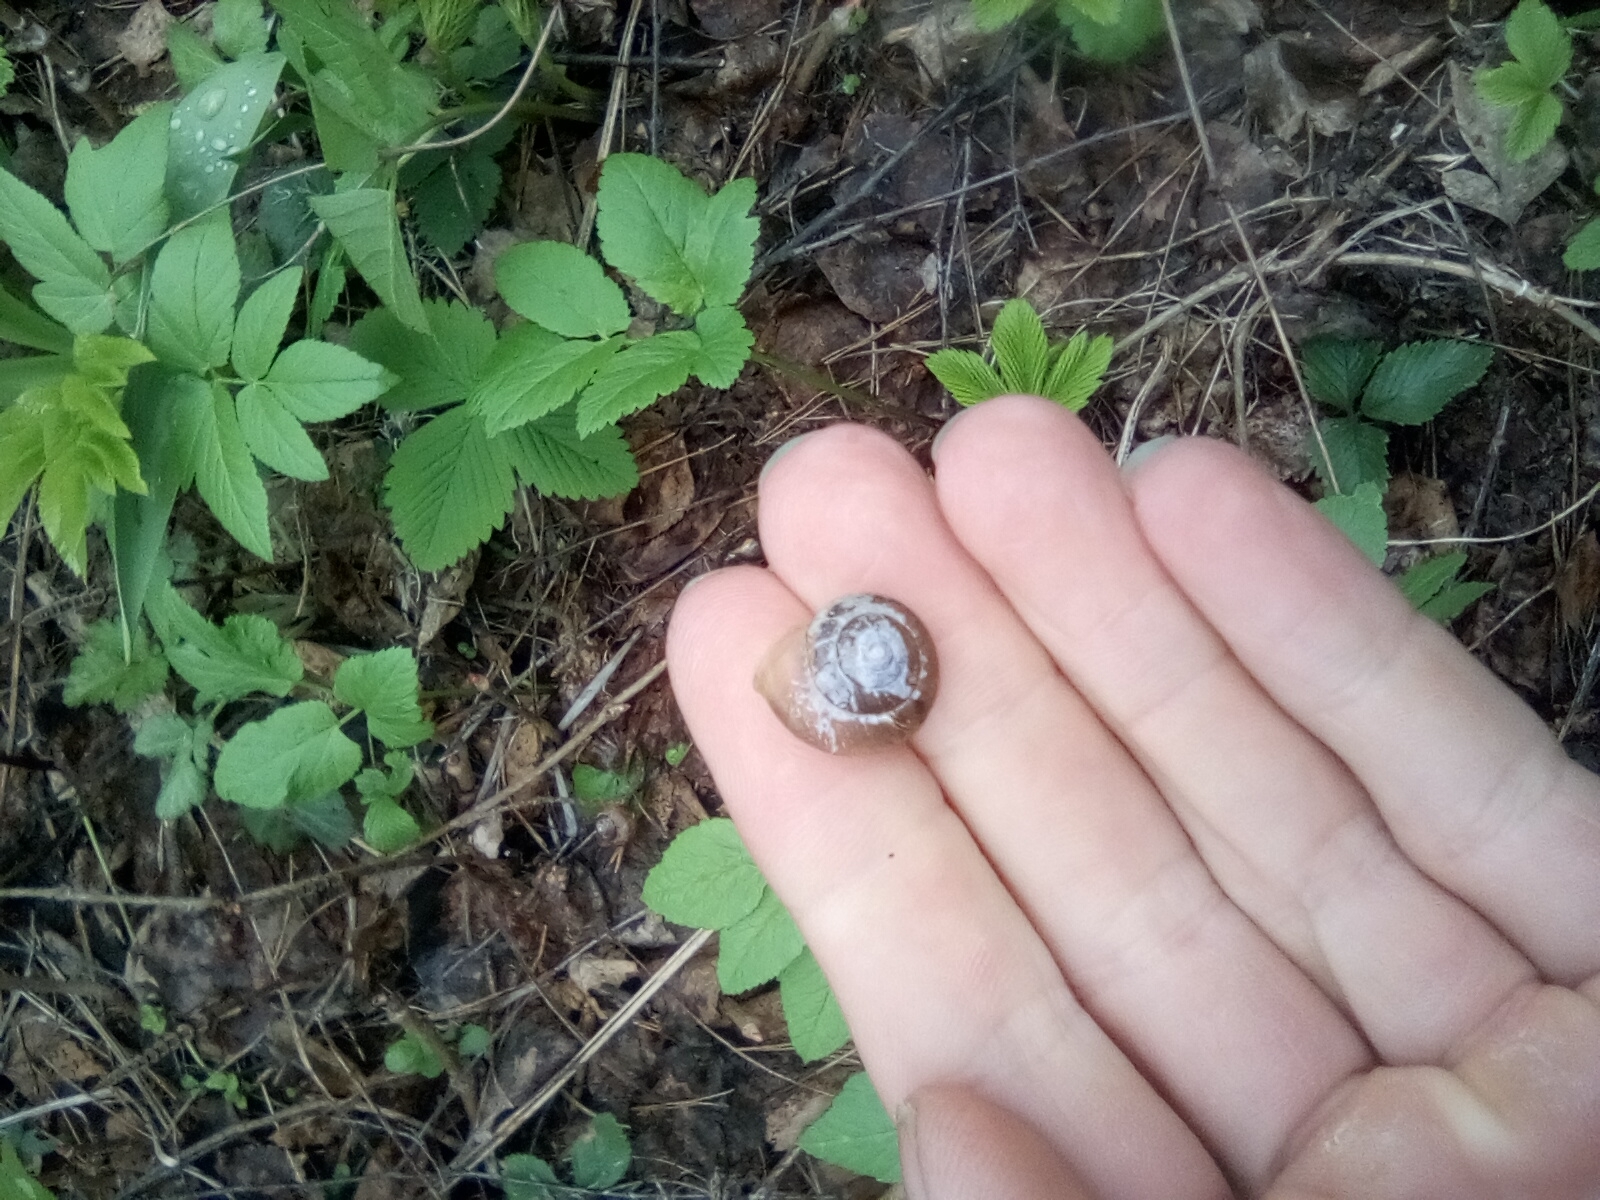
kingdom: Animalia
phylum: Mollusca
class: Gastropoda
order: Stylommatophora
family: Hygromiidae
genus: Euomphalia
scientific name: Euomphalia strigella
